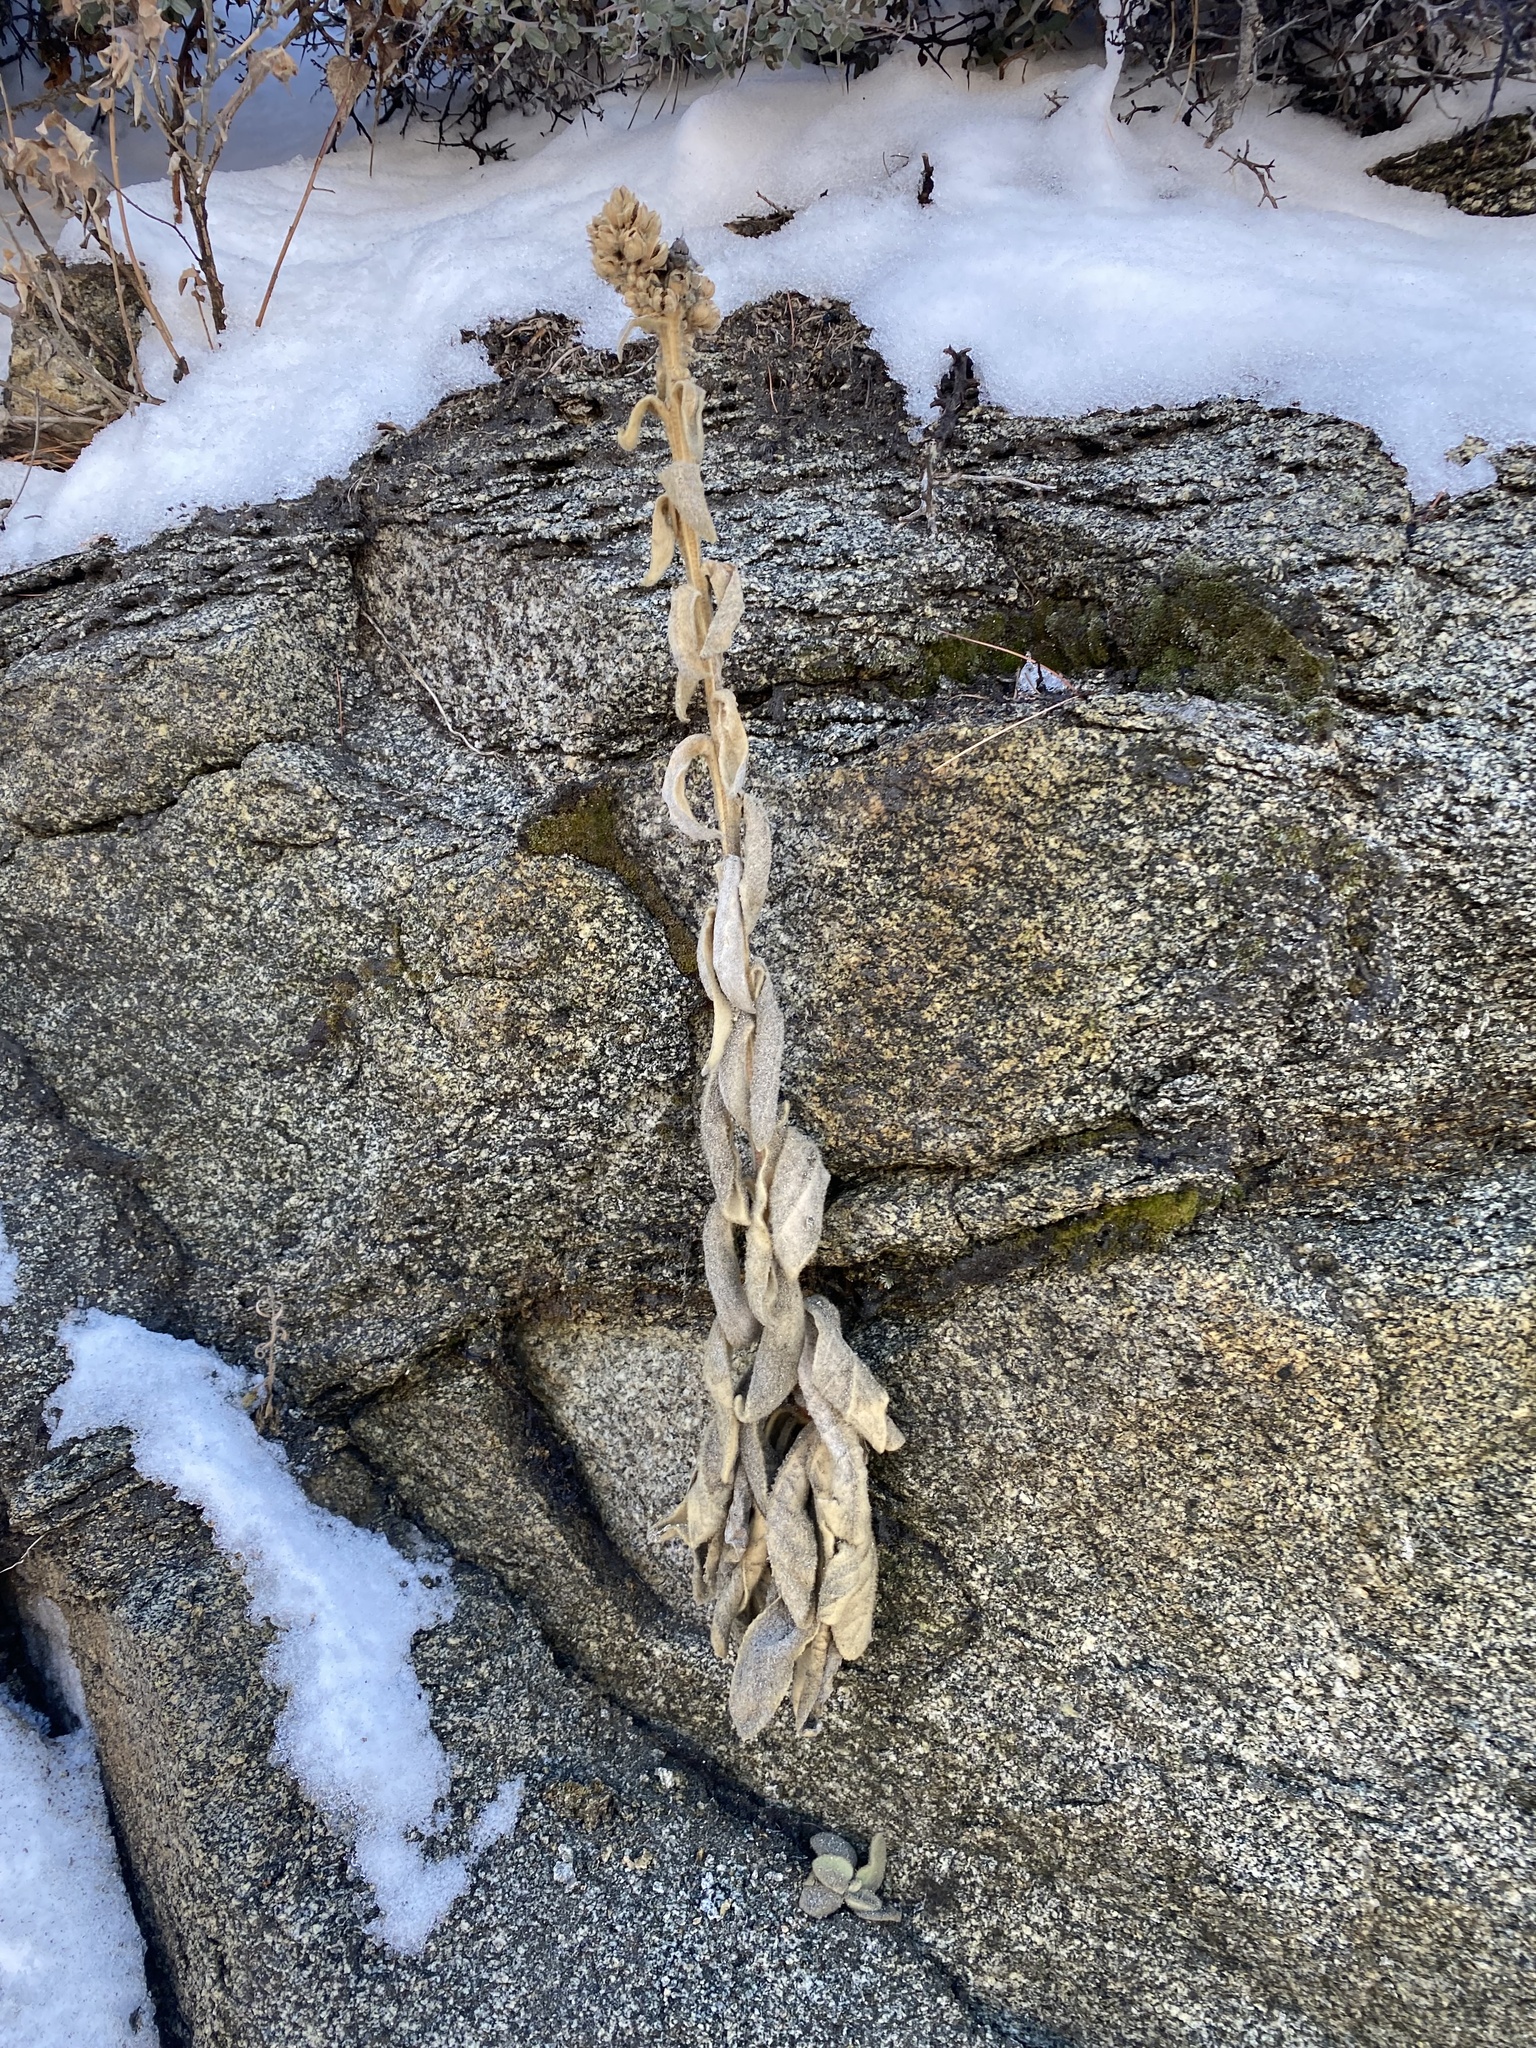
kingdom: Plantae
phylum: Tracheophyta
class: Magnoliopsida
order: Lamiales
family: Scrophulariaceae
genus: Verbascum
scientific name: Verbascum thapsus
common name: Common mullein
